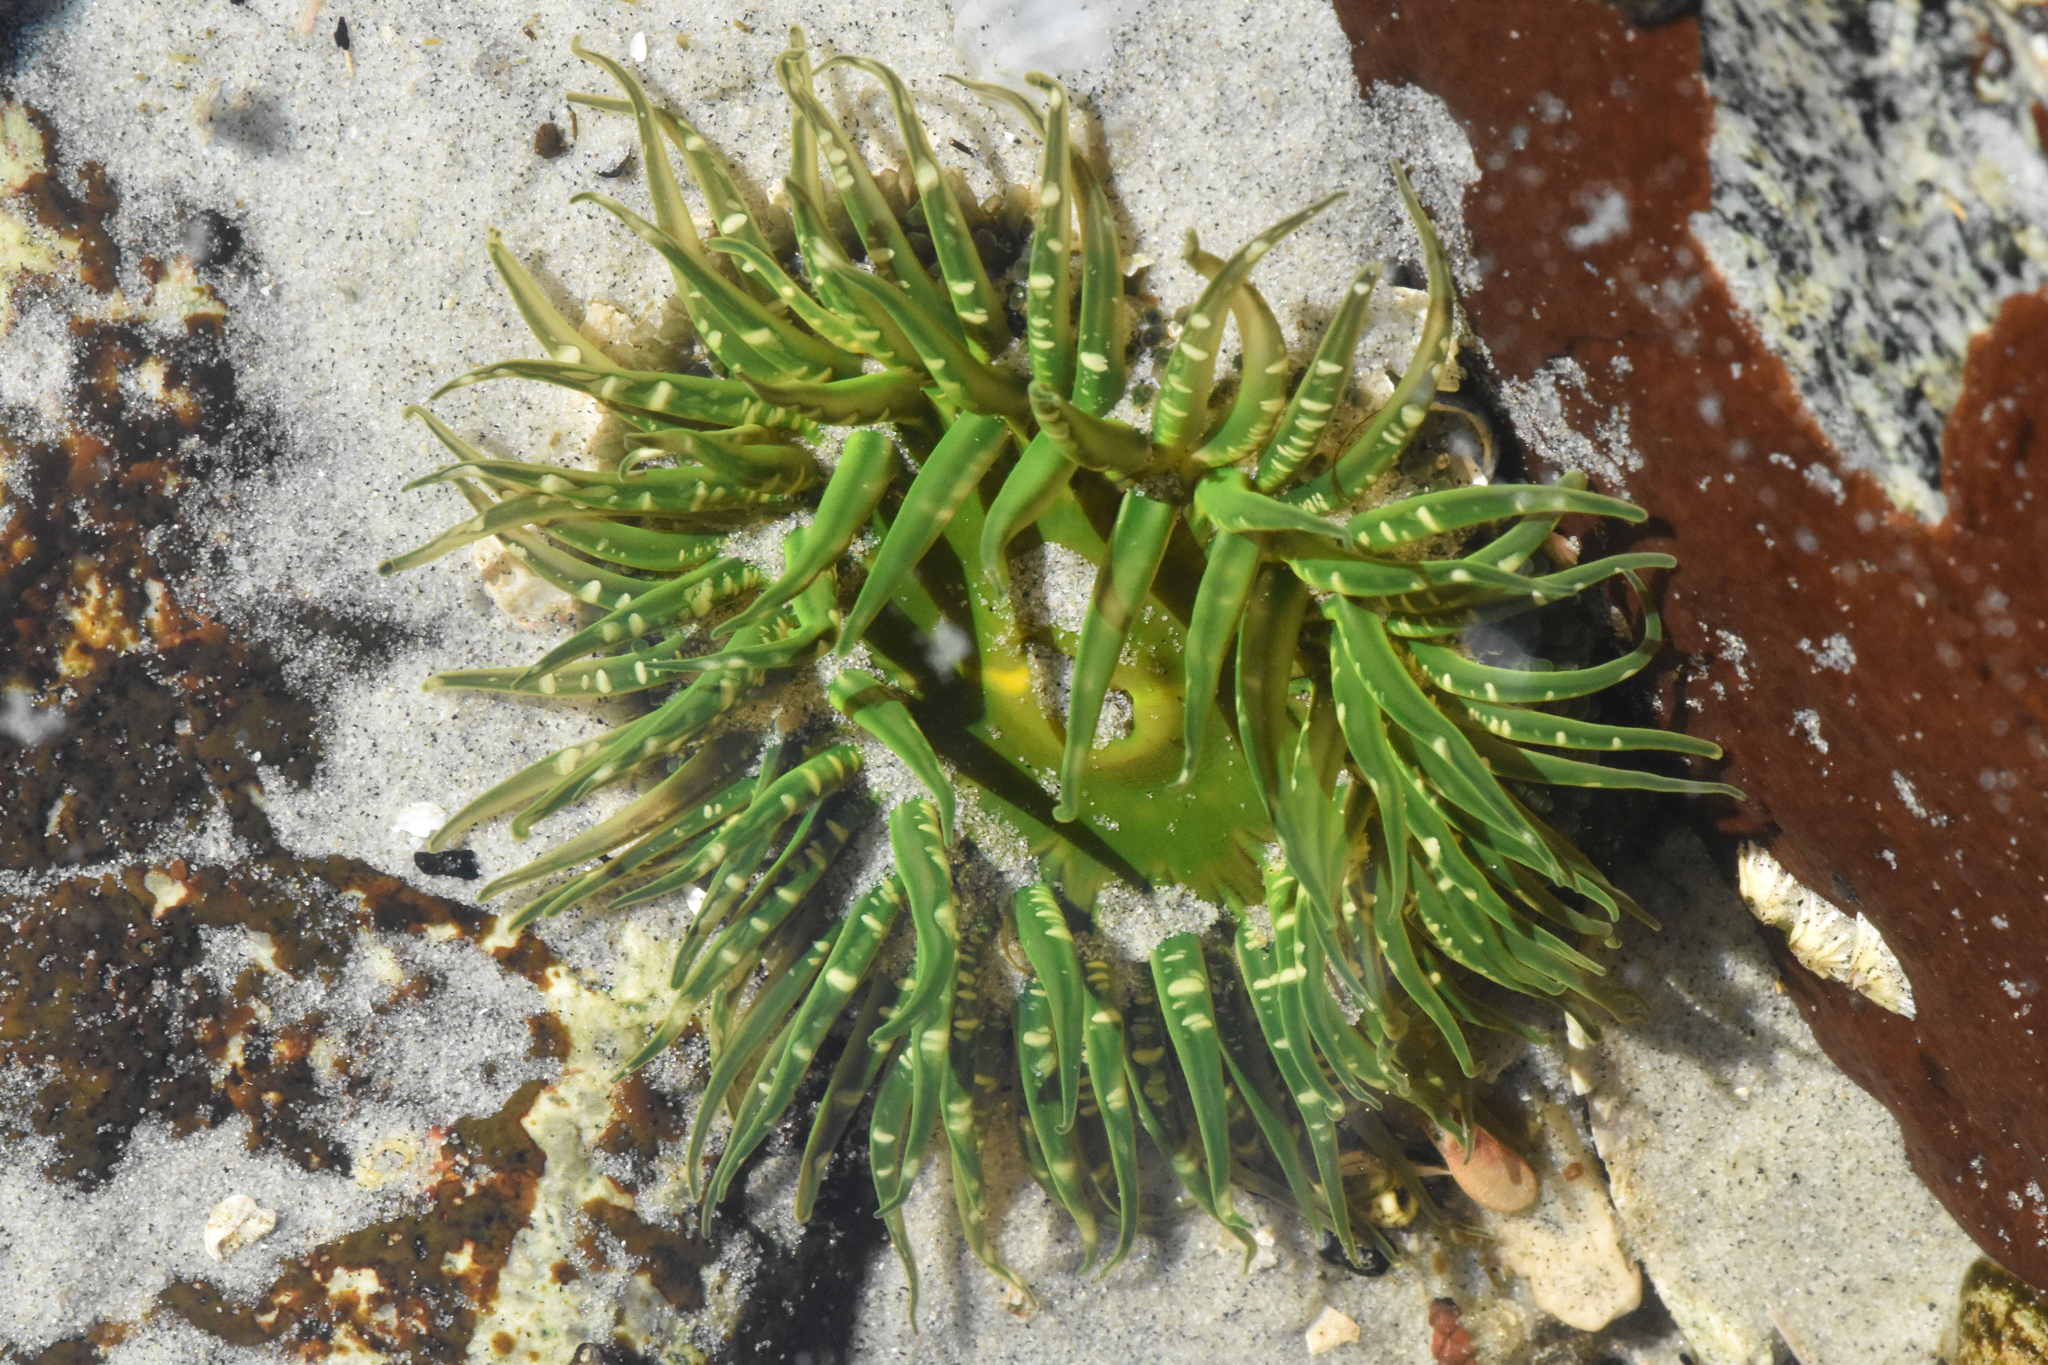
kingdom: Animalia
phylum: Cnidaria
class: Anthozoa
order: Actiniaria
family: Actiniidae
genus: Anthopleura
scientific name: Anthopleura artemisia
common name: Buried sea anemone
